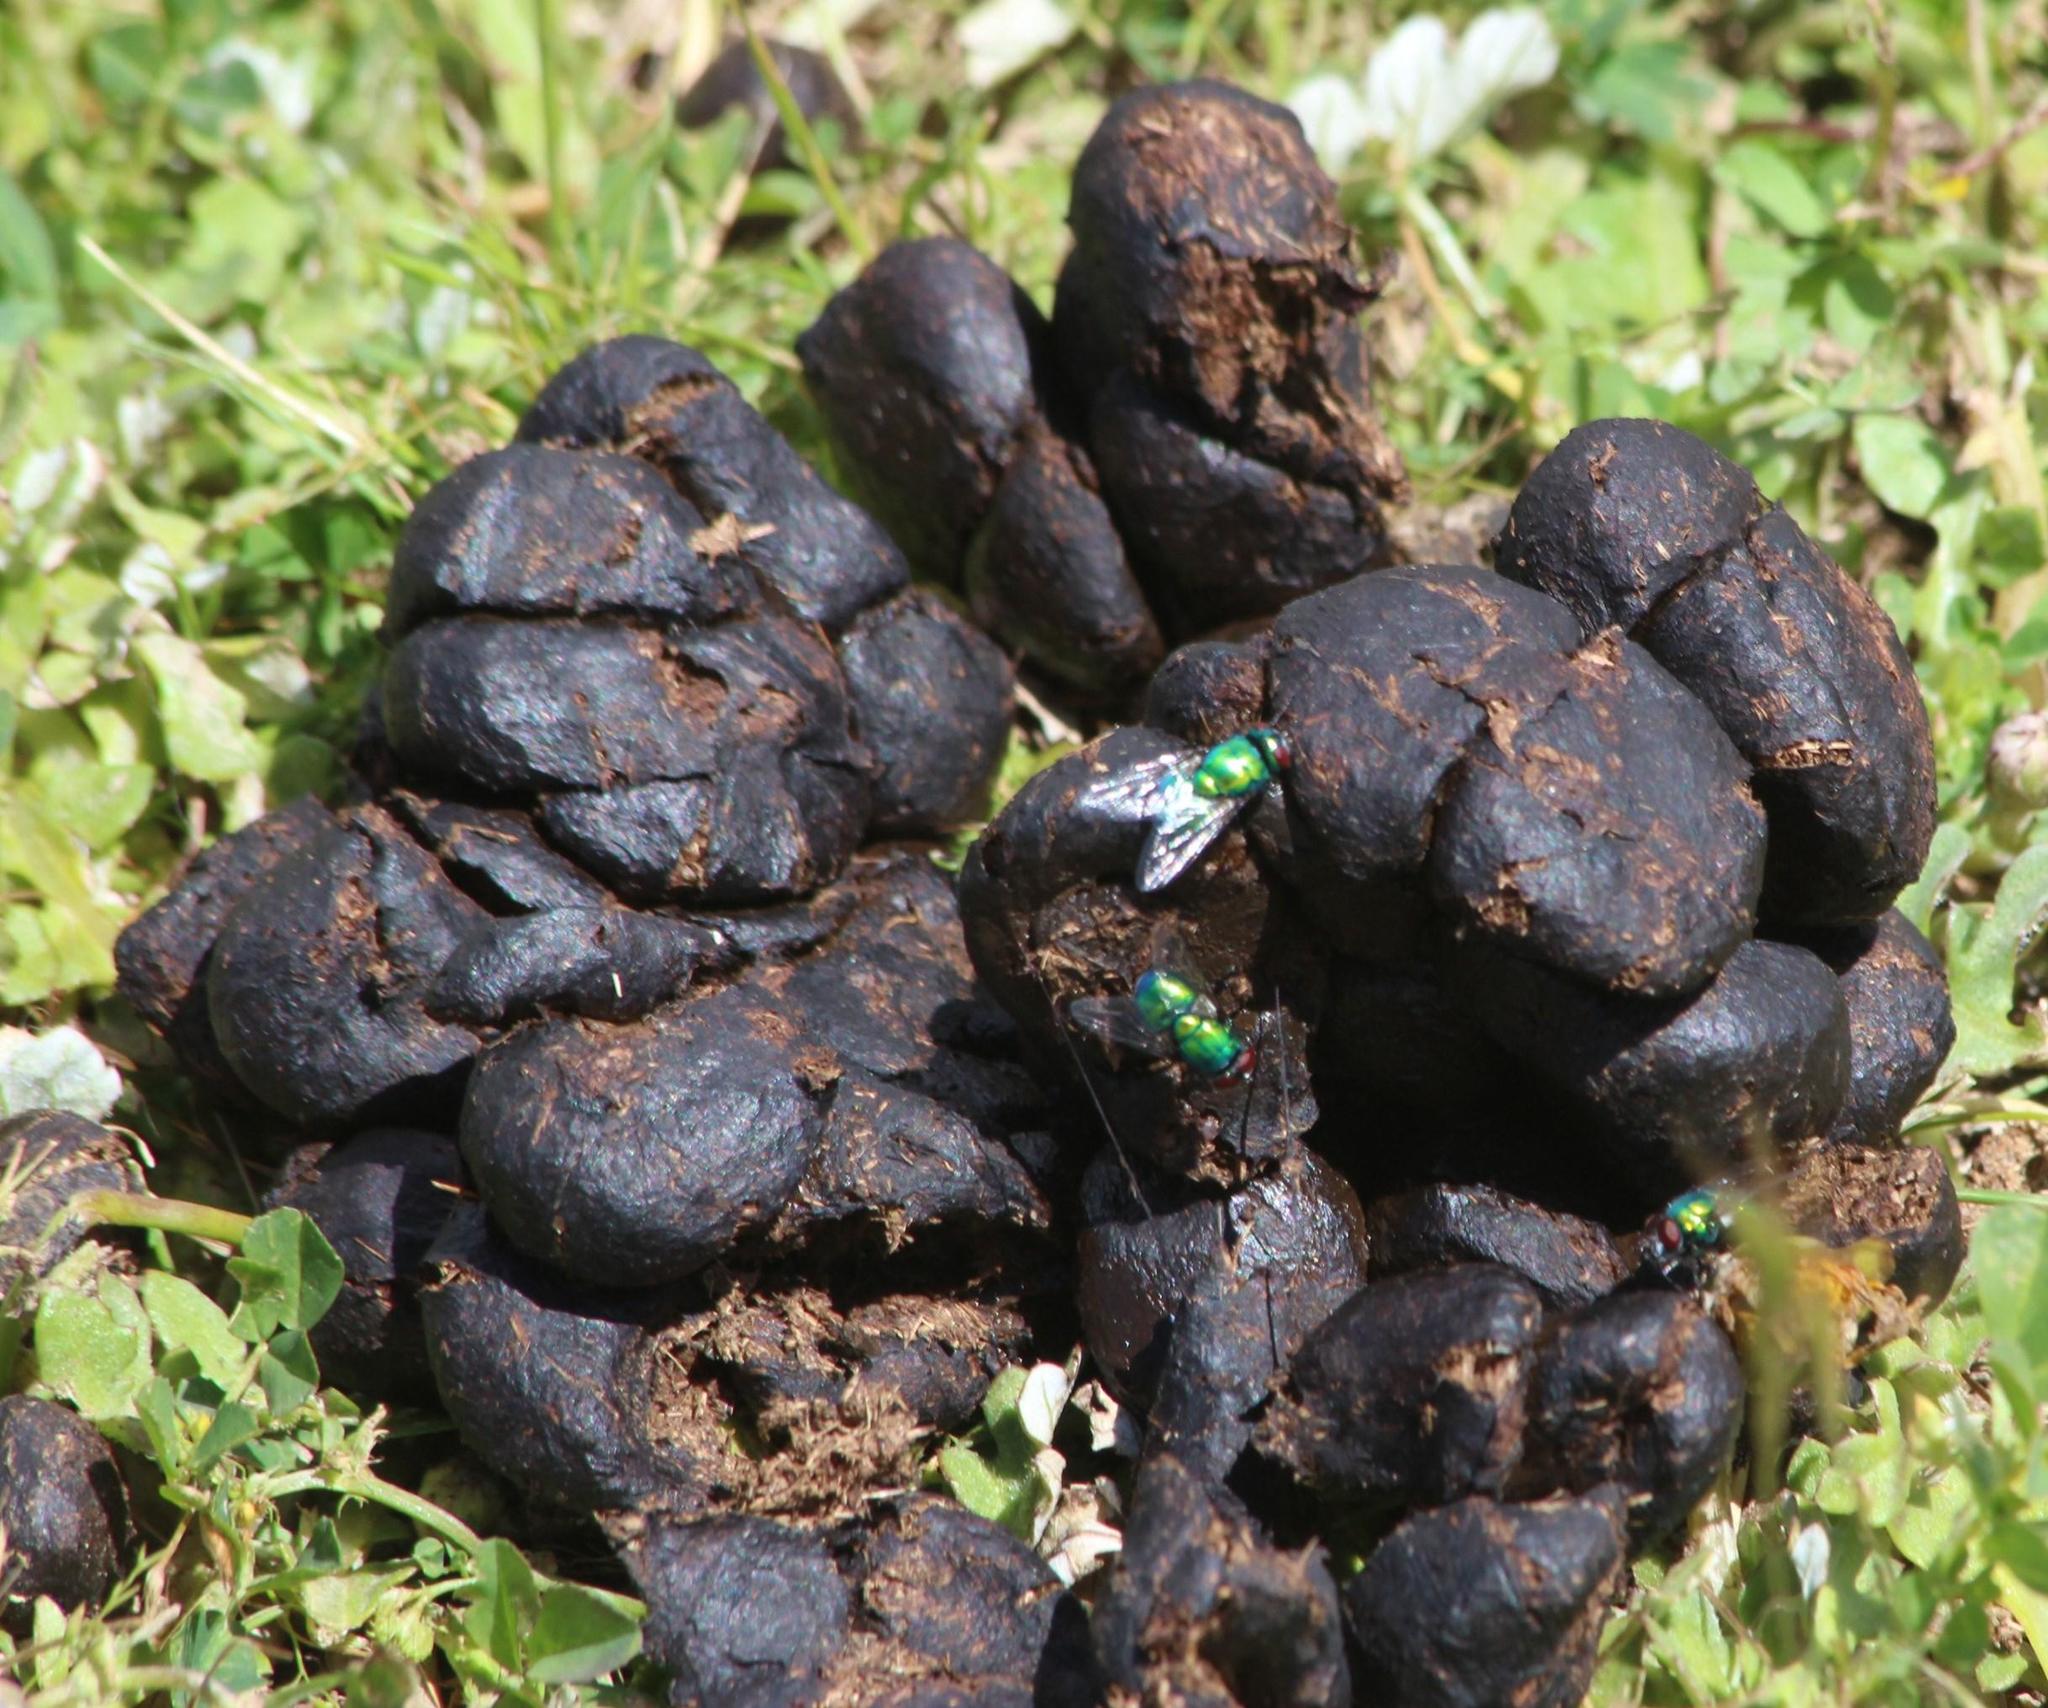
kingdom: Animalia
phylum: Chordata
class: Mammalia
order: Artiodactyla
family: Bovidae
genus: Damaliscus
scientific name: Damaliscus pygargus
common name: Bontebok
